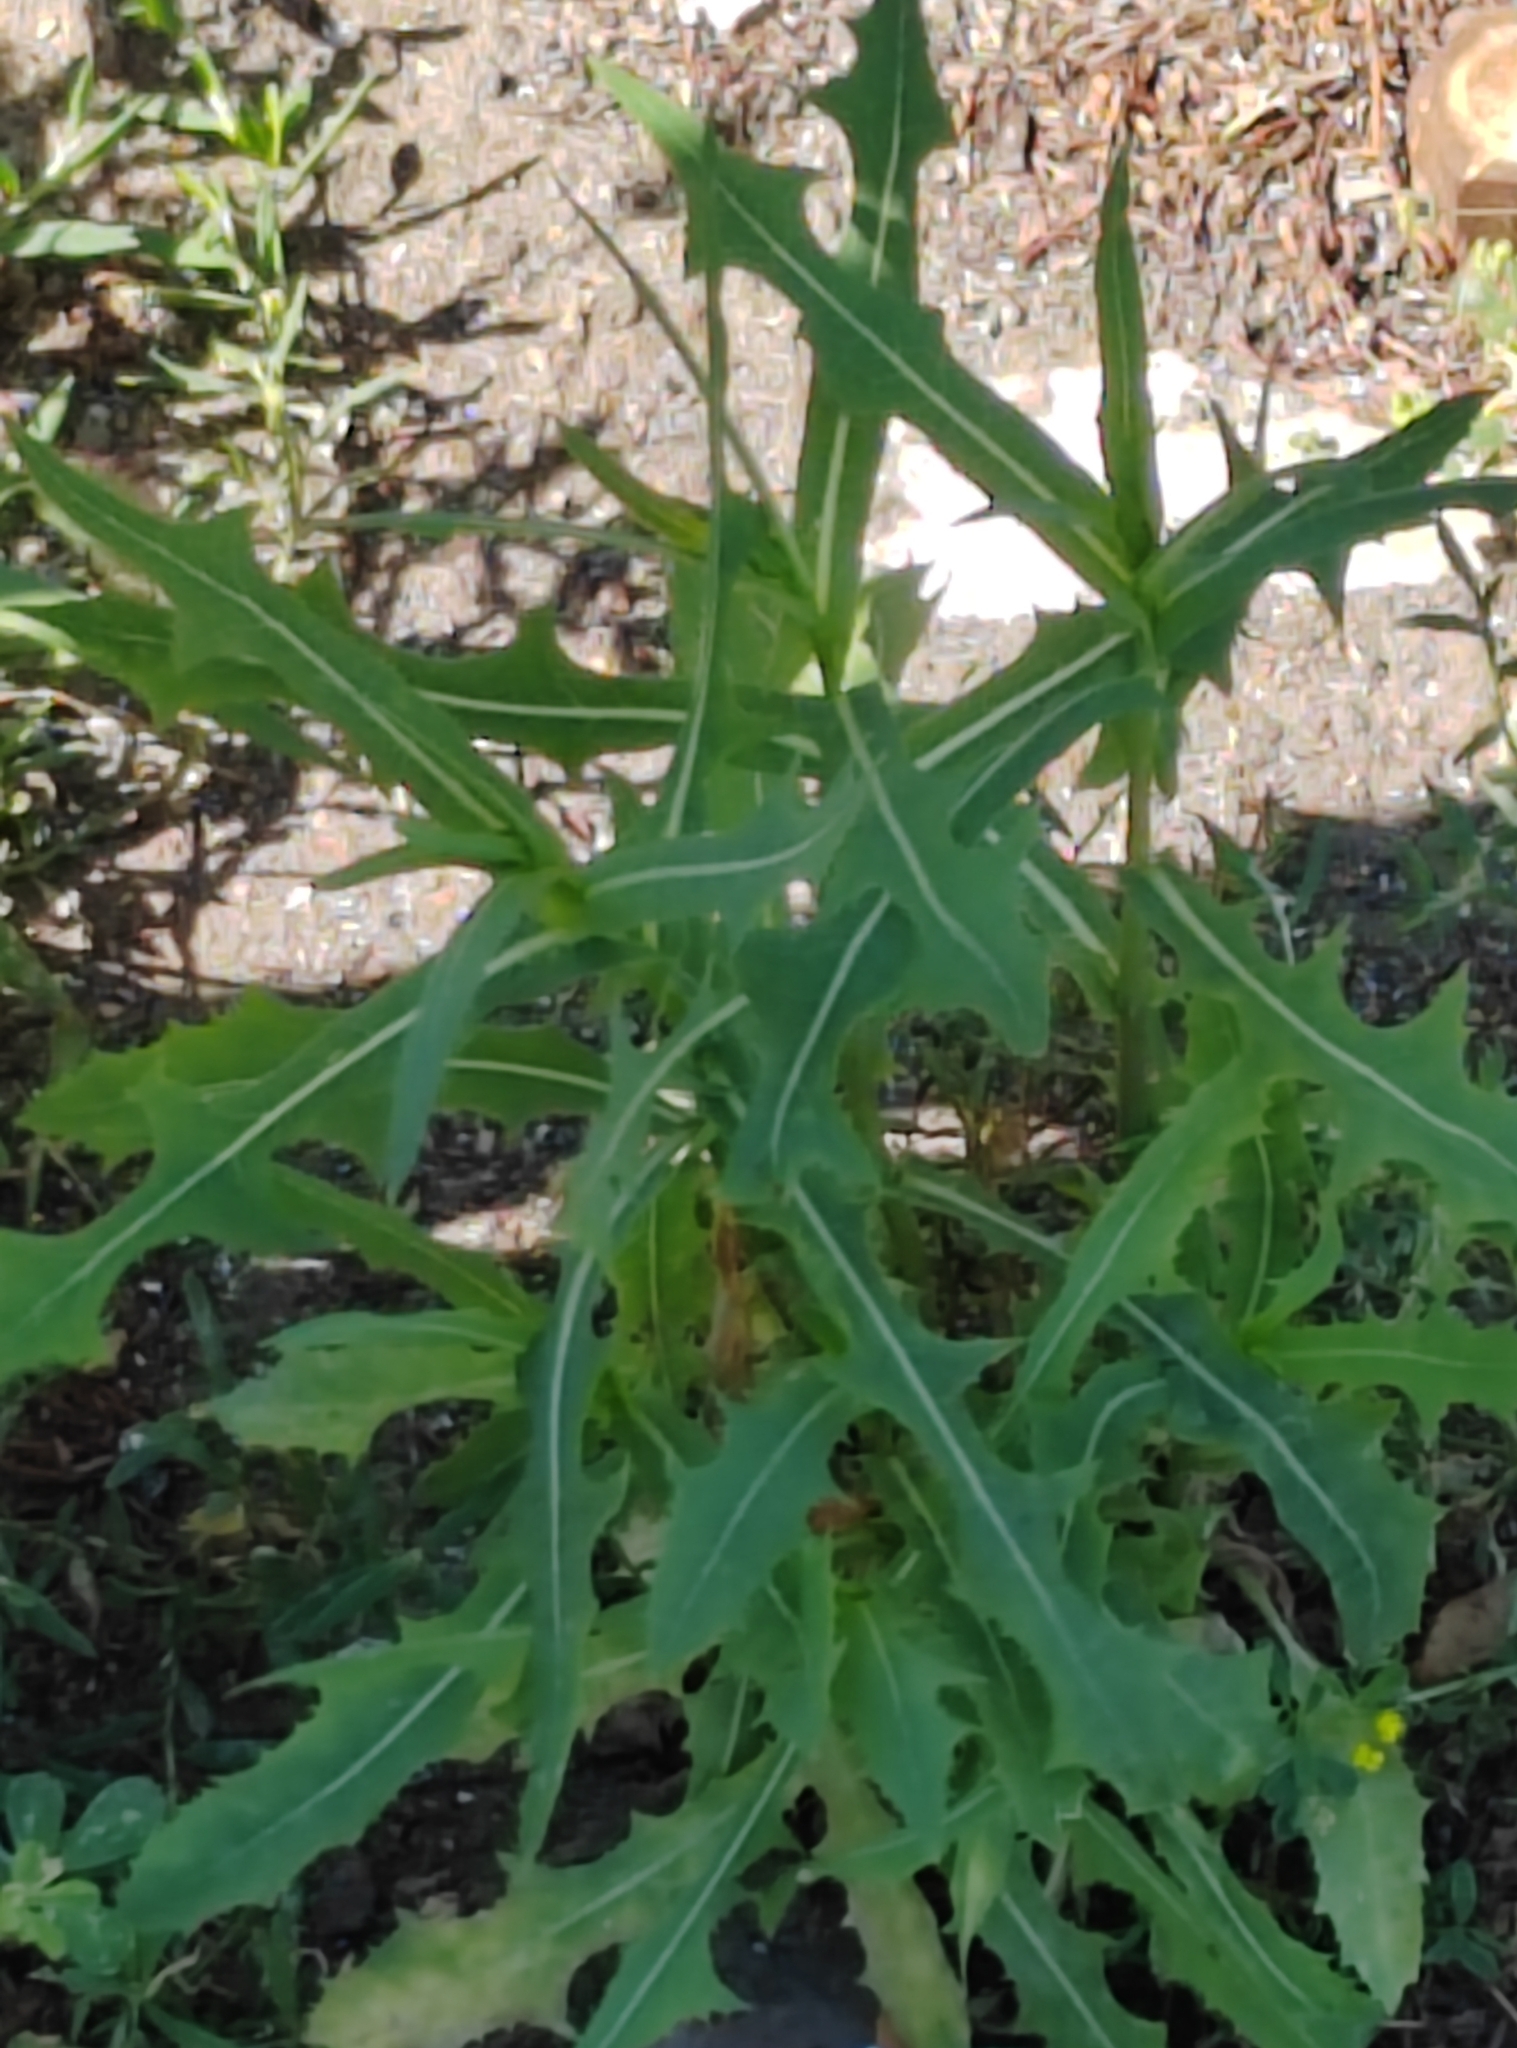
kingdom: Plantae
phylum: Tracheophyta
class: Magnoliopsida
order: Asterales
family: Asteraceae
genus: Lactuca
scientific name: Lactuca tatarica
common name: Blue lettuce
